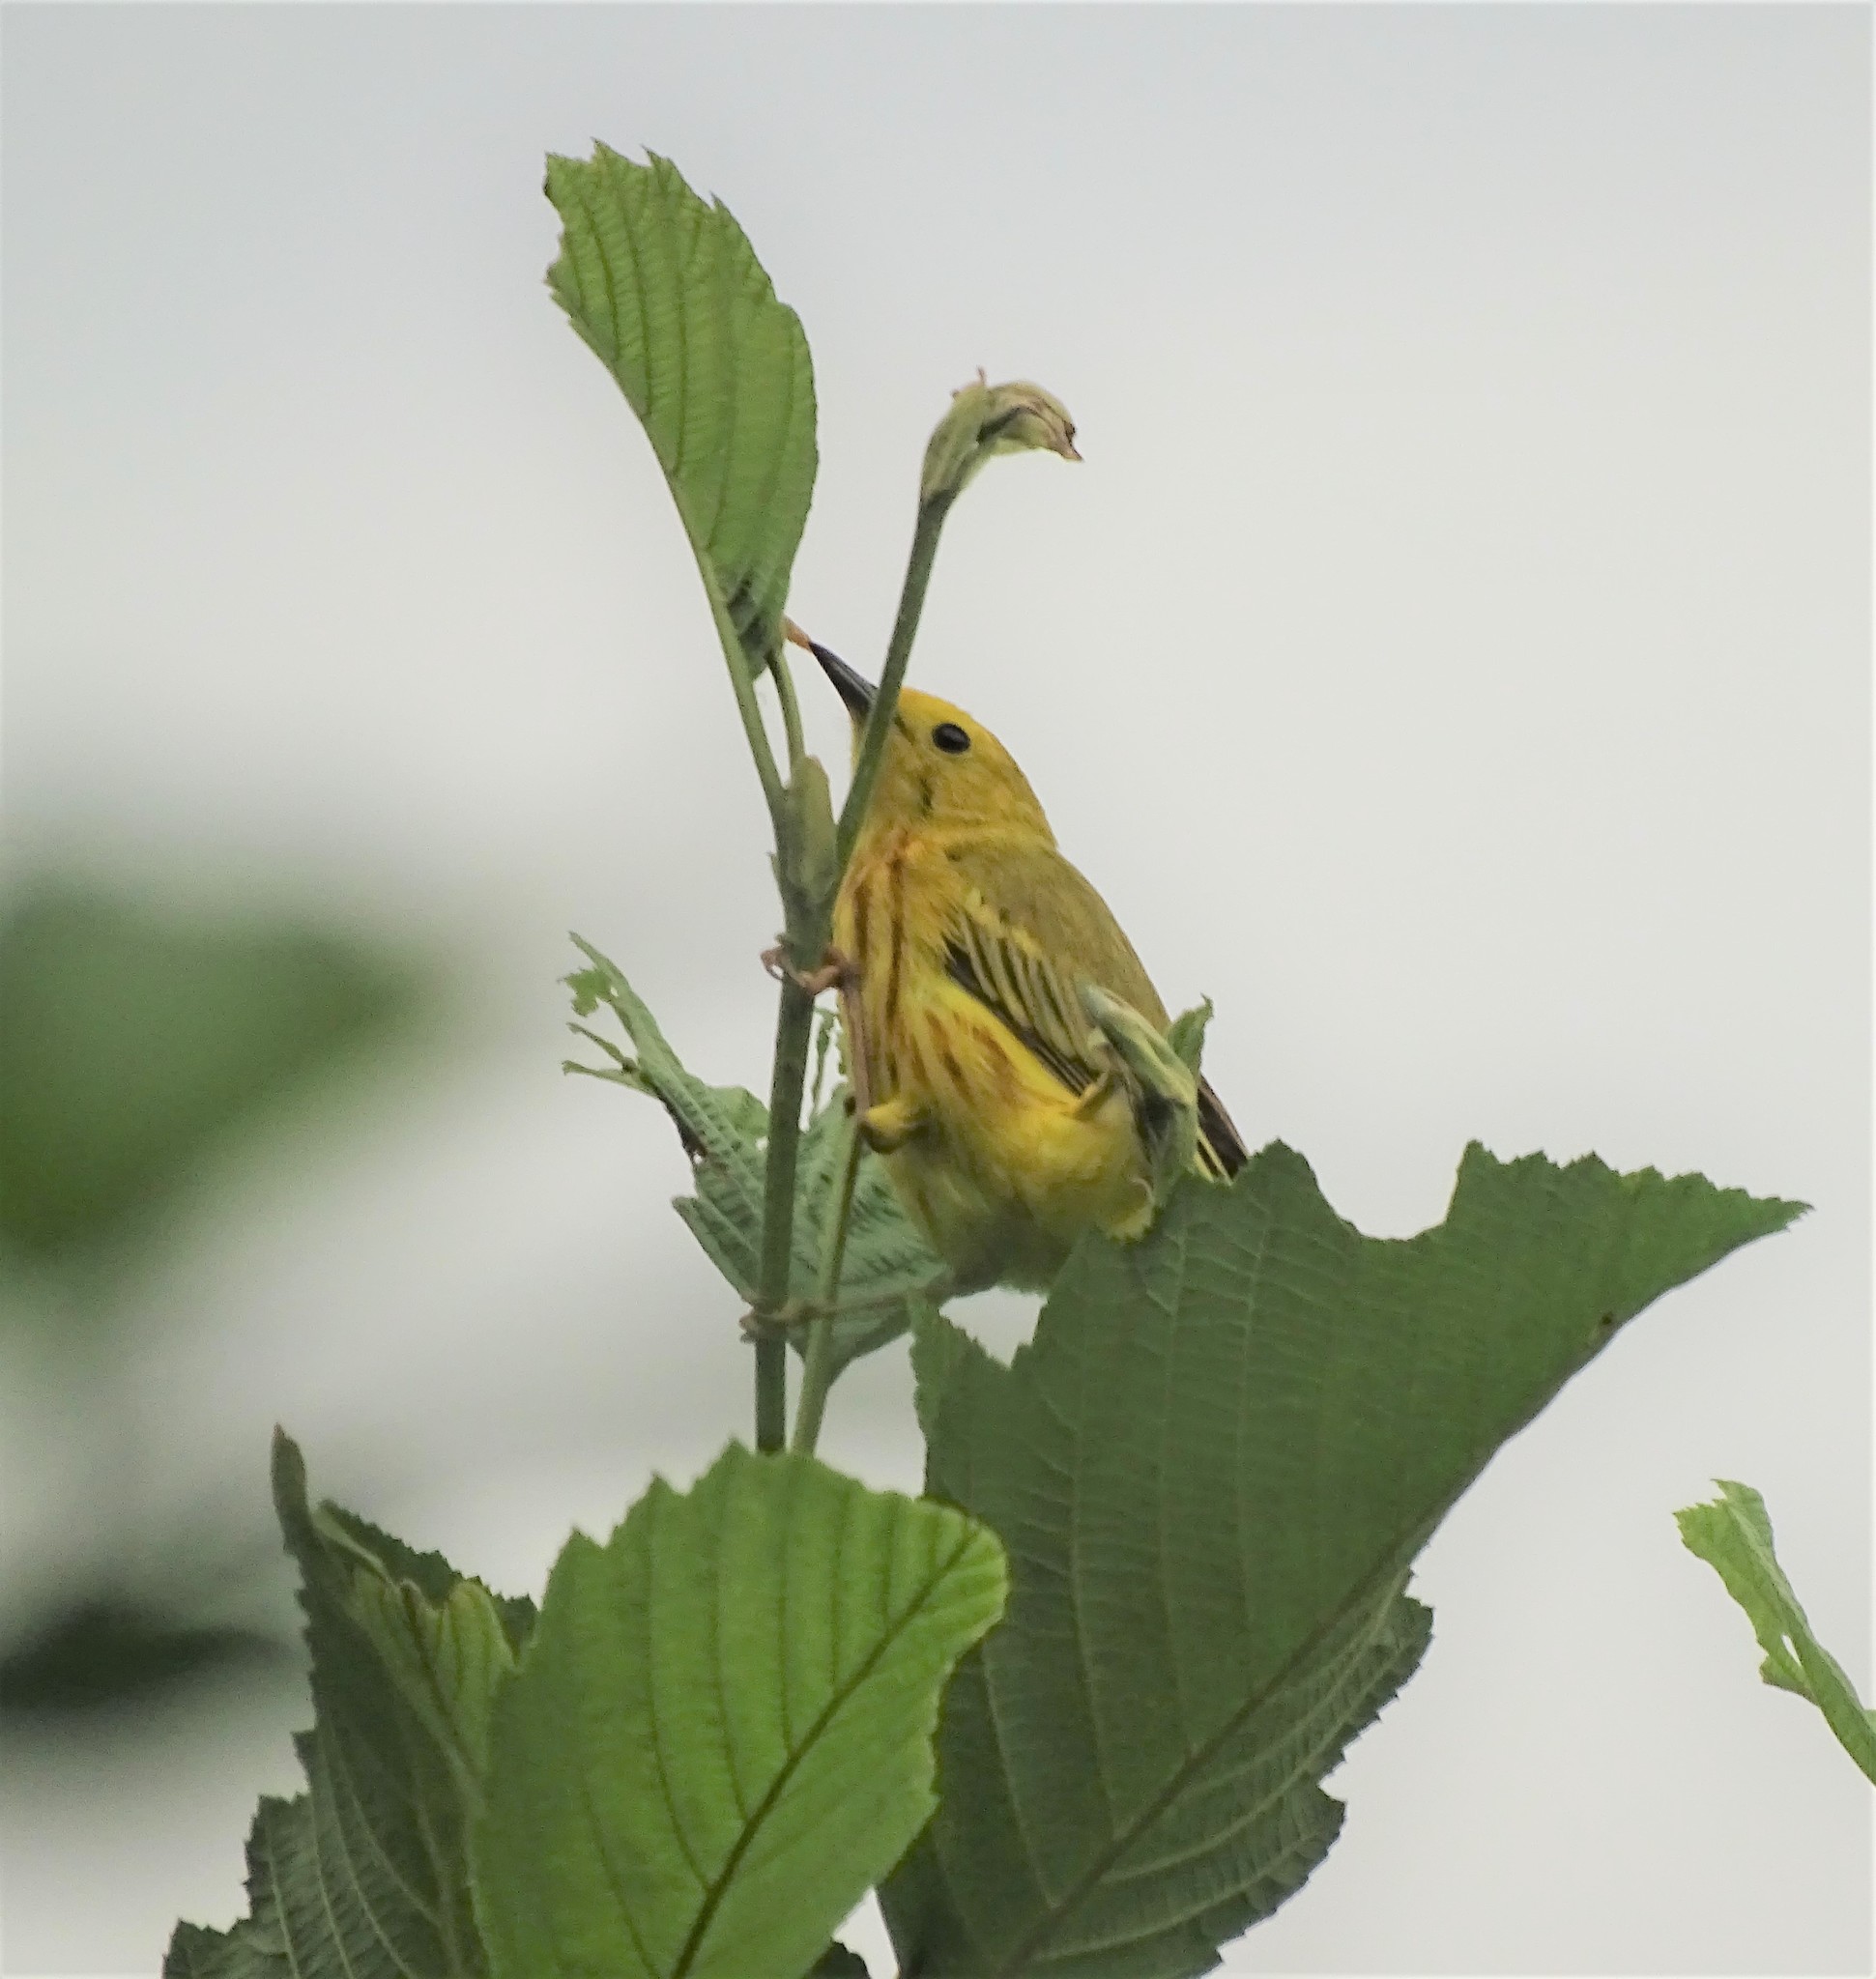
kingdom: Animalia
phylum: Chordata
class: Aves
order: Passeriformes
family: Parulidae
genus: Setophaga
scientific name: Setophaga petechia
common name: Yellow warbler
